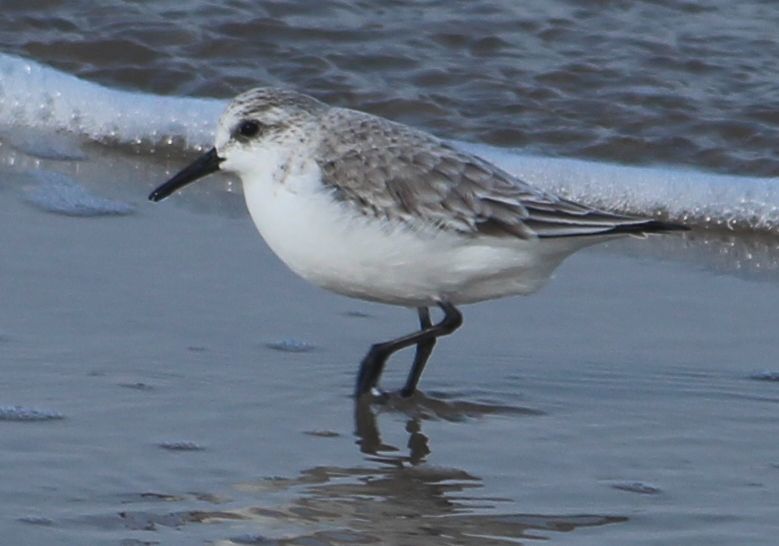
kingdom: Animalia
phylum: Chordata
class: Aves
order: Charadriiformes
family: Scolopacidae
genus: Calidris
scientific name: Calidris alba
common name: Sanderling
